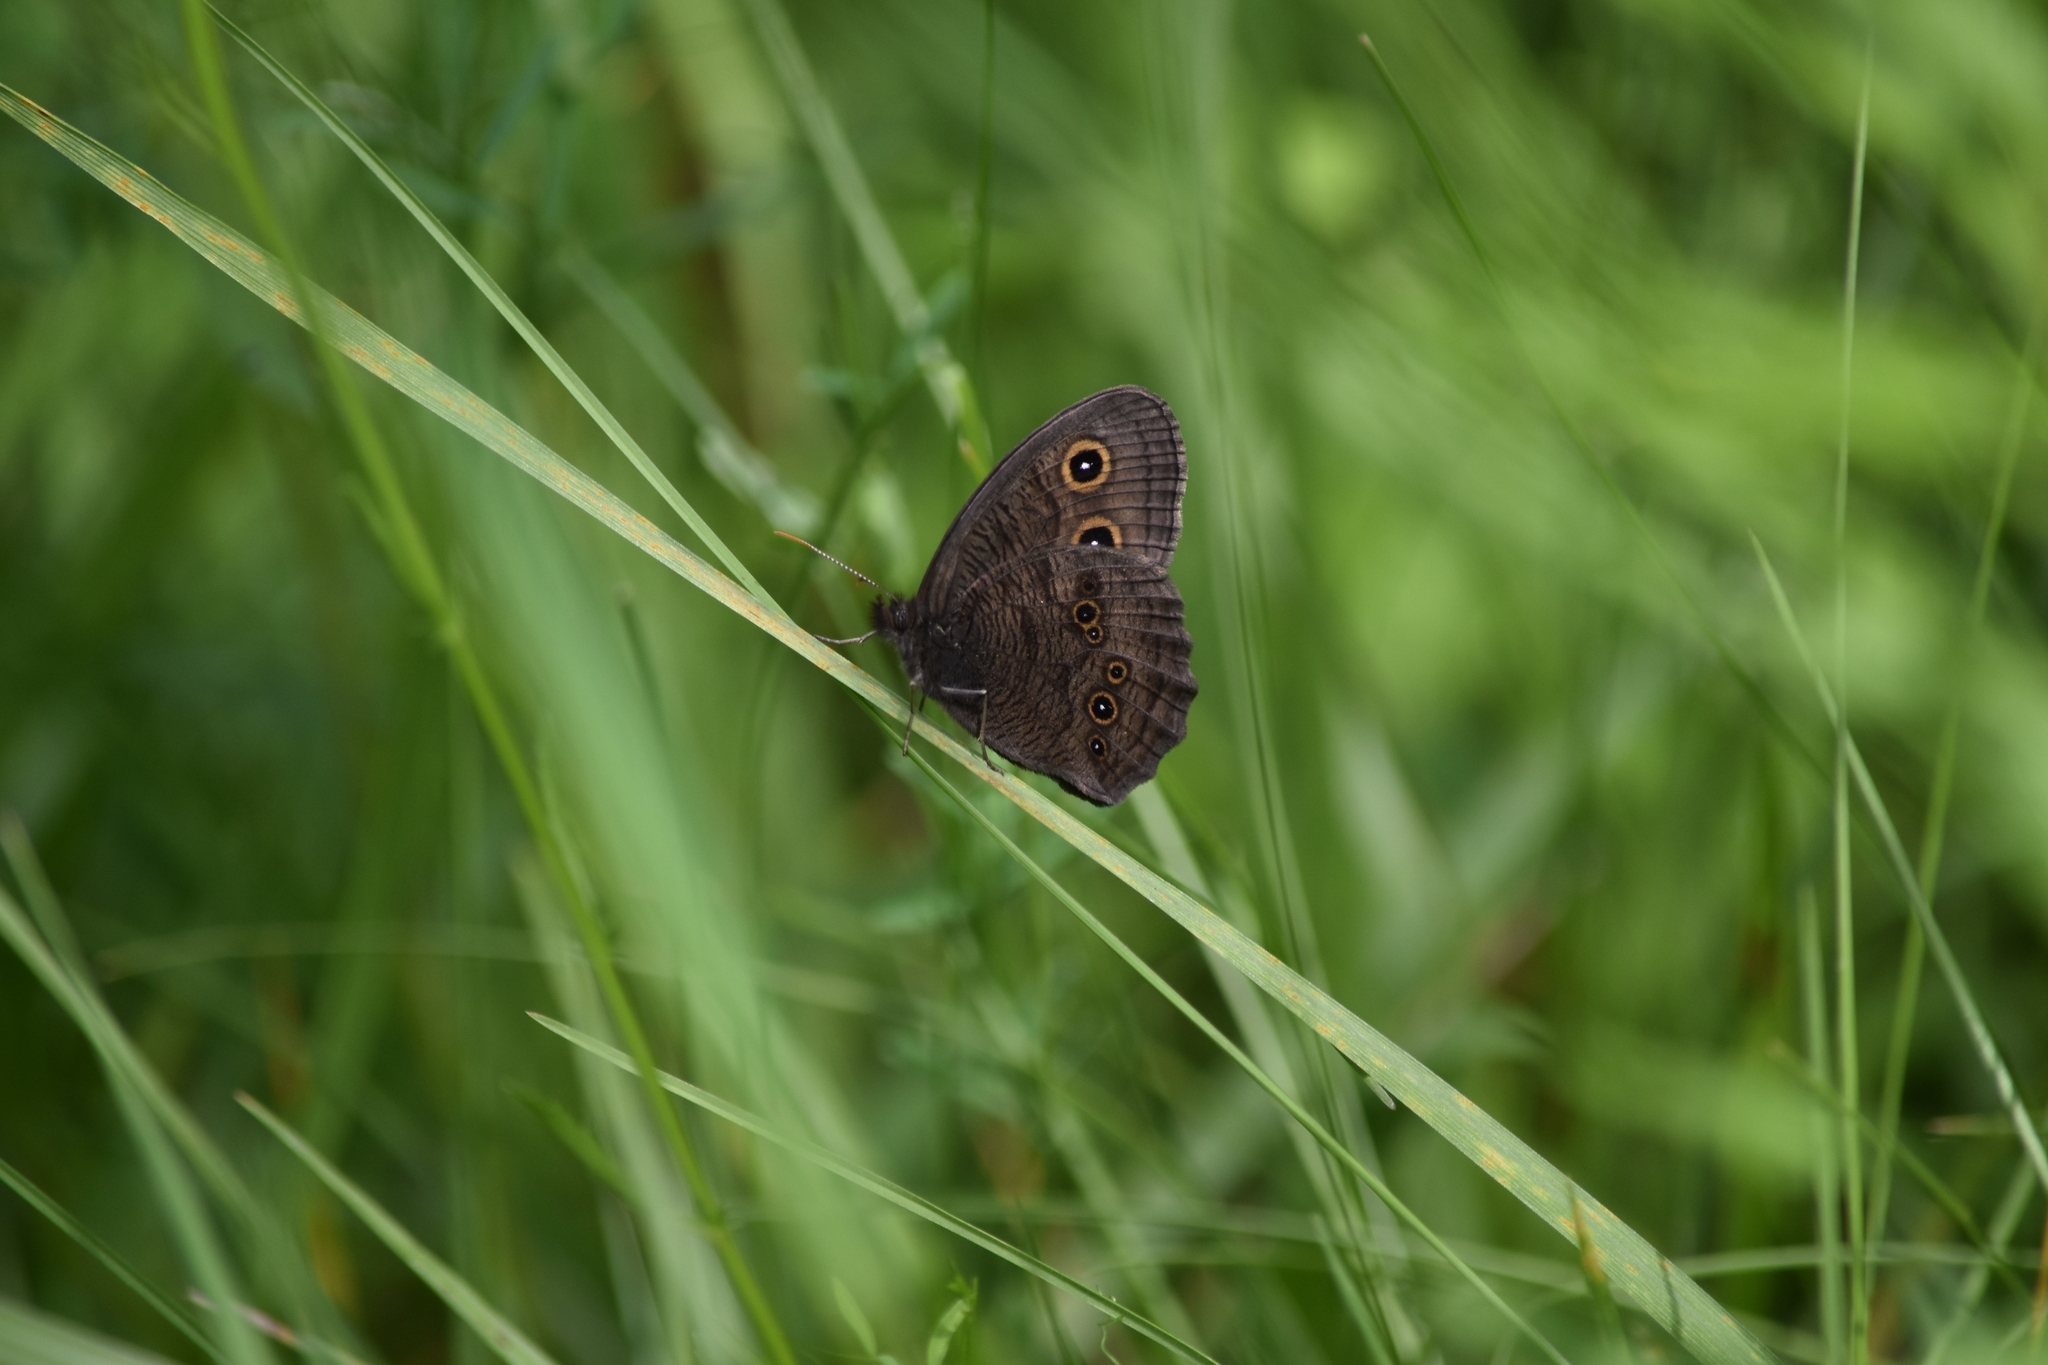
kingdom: Animalia
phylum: Arthropoda
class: Insecta
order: Lepidoptera
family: Nymphalidae
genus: Cercyonis
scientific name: Cercyonis pegala
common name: Common wood-nymph
